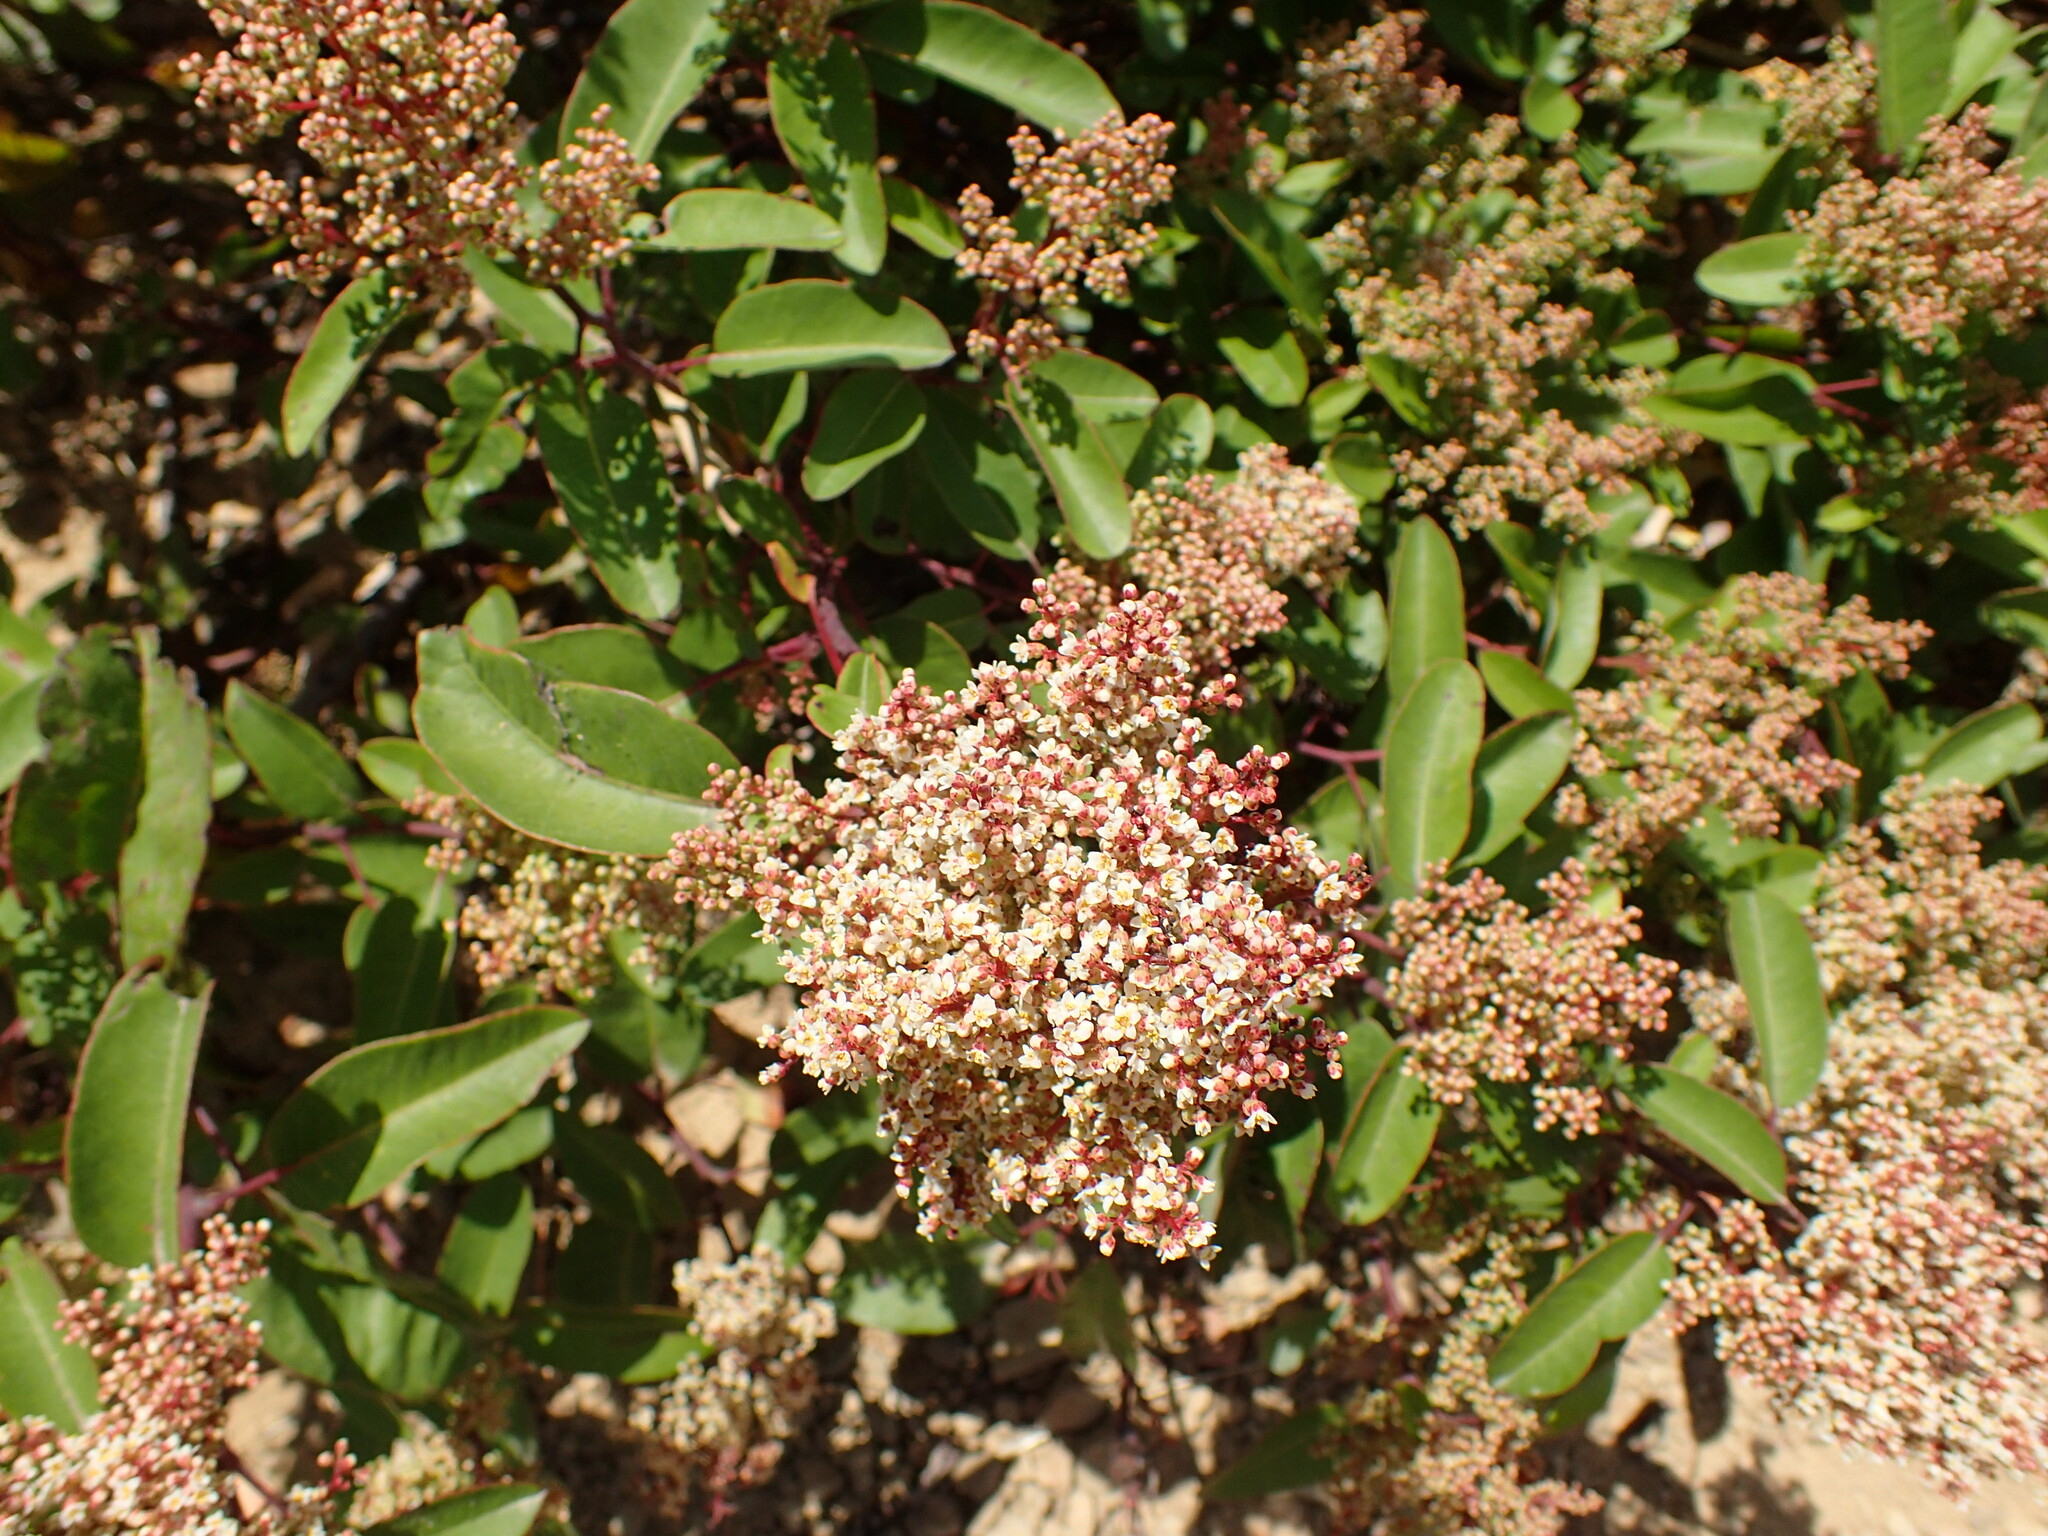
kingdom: Plantae
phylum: Tracheophyta
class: Magnoliopsida
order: Sapindales
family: Anacardiaceae
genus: Malosma
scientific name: Malosma laurina
